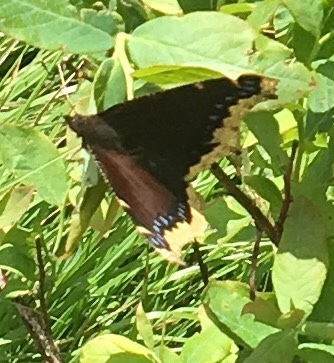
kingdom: Animalia
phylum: Arthropoda
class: Insecta
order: Lepidoptera
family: Nymphalidae
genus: Nymphalis
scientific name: Nymphalis antiopa
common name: Camberwell beauty
